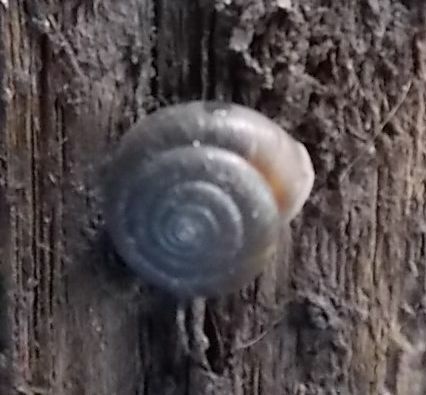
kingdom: Animalia
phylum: Mollusca
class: Gastropoda
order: Stylommatophora
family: Hygromiidae
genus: Trochulus
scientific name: Trochulus striolatus
